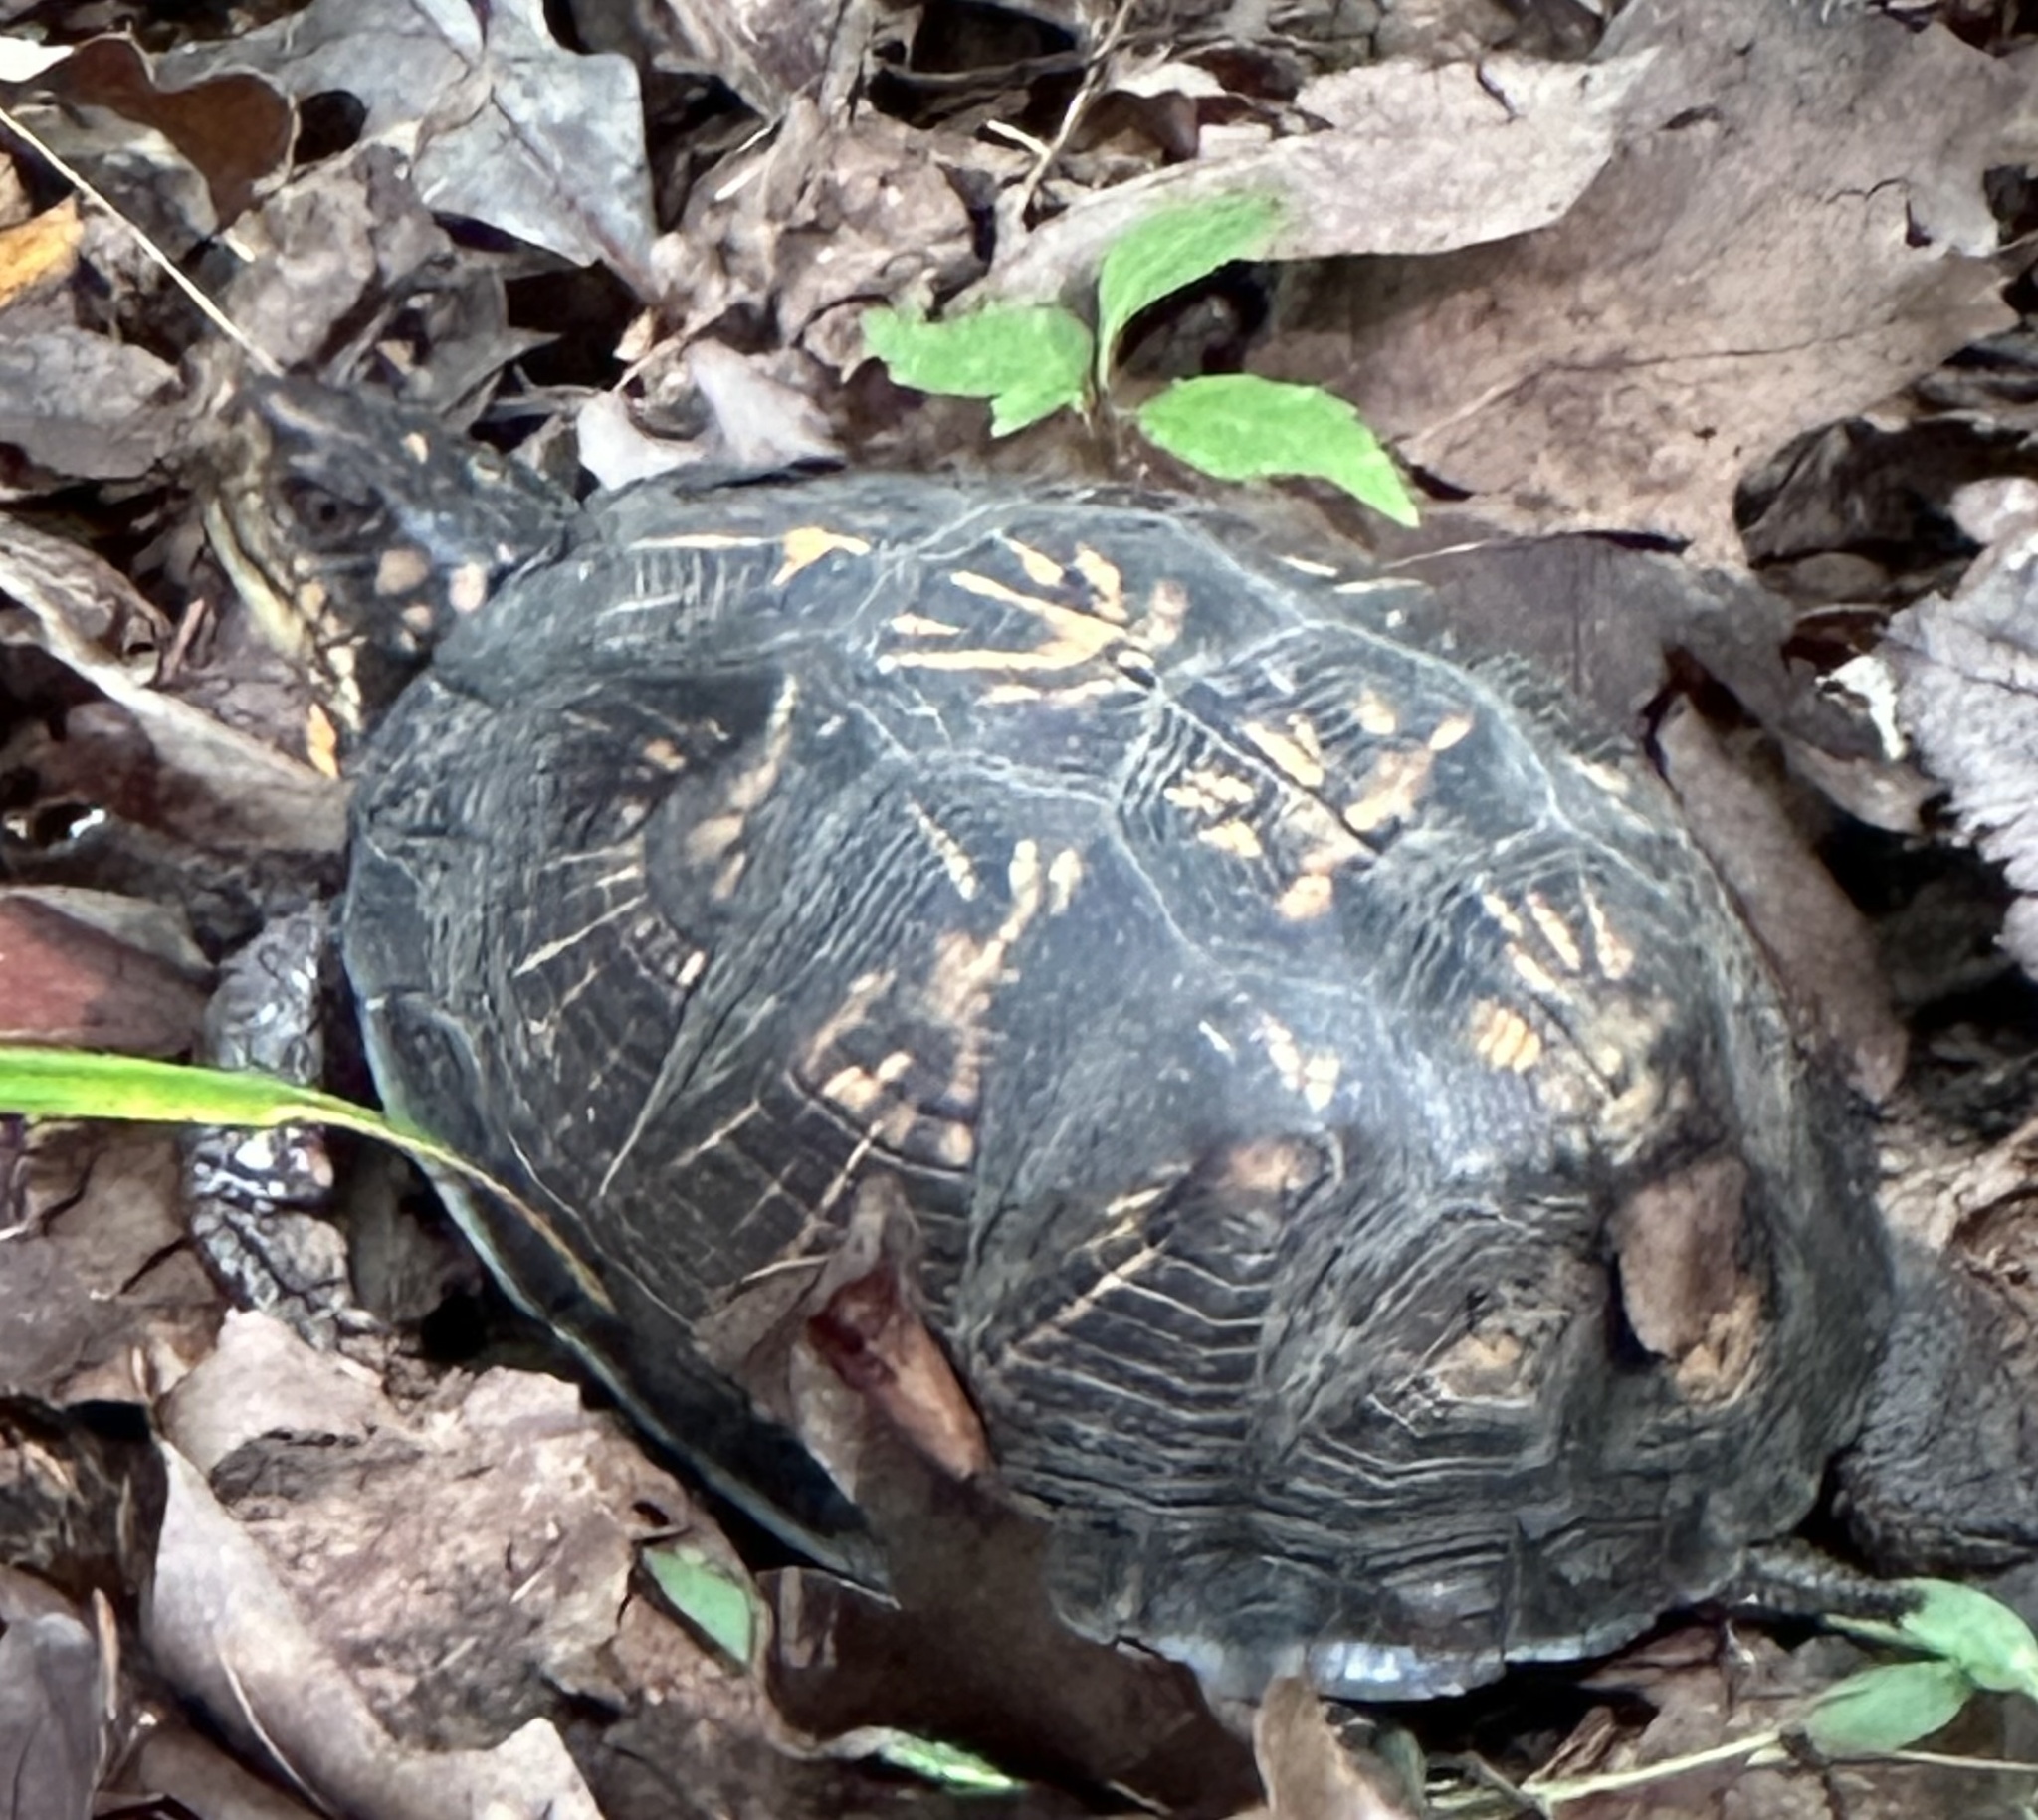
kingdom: Animalia
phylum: Chordata
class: Testudines
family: Emydidae
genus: Terrapene
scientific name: Terrapene carolina
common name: Common box turtle
